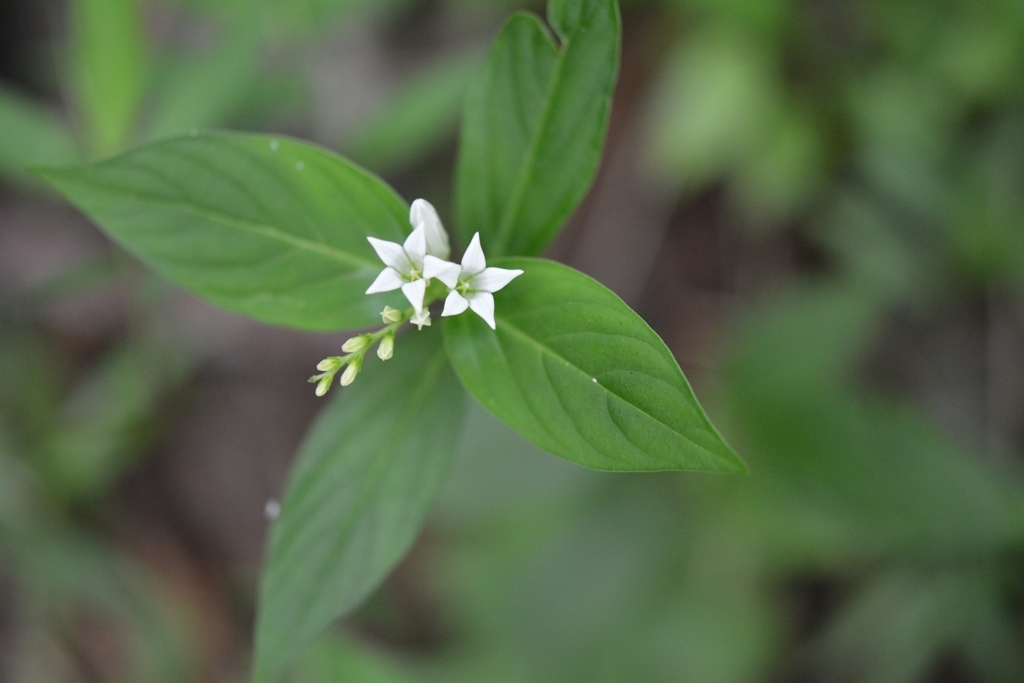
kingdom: Plantae
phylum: Tracheophyta
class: Magnoliopsida
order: Gentianales
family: Loganiaceae
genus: Spigelia
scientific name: Spigelia humboldtiana
